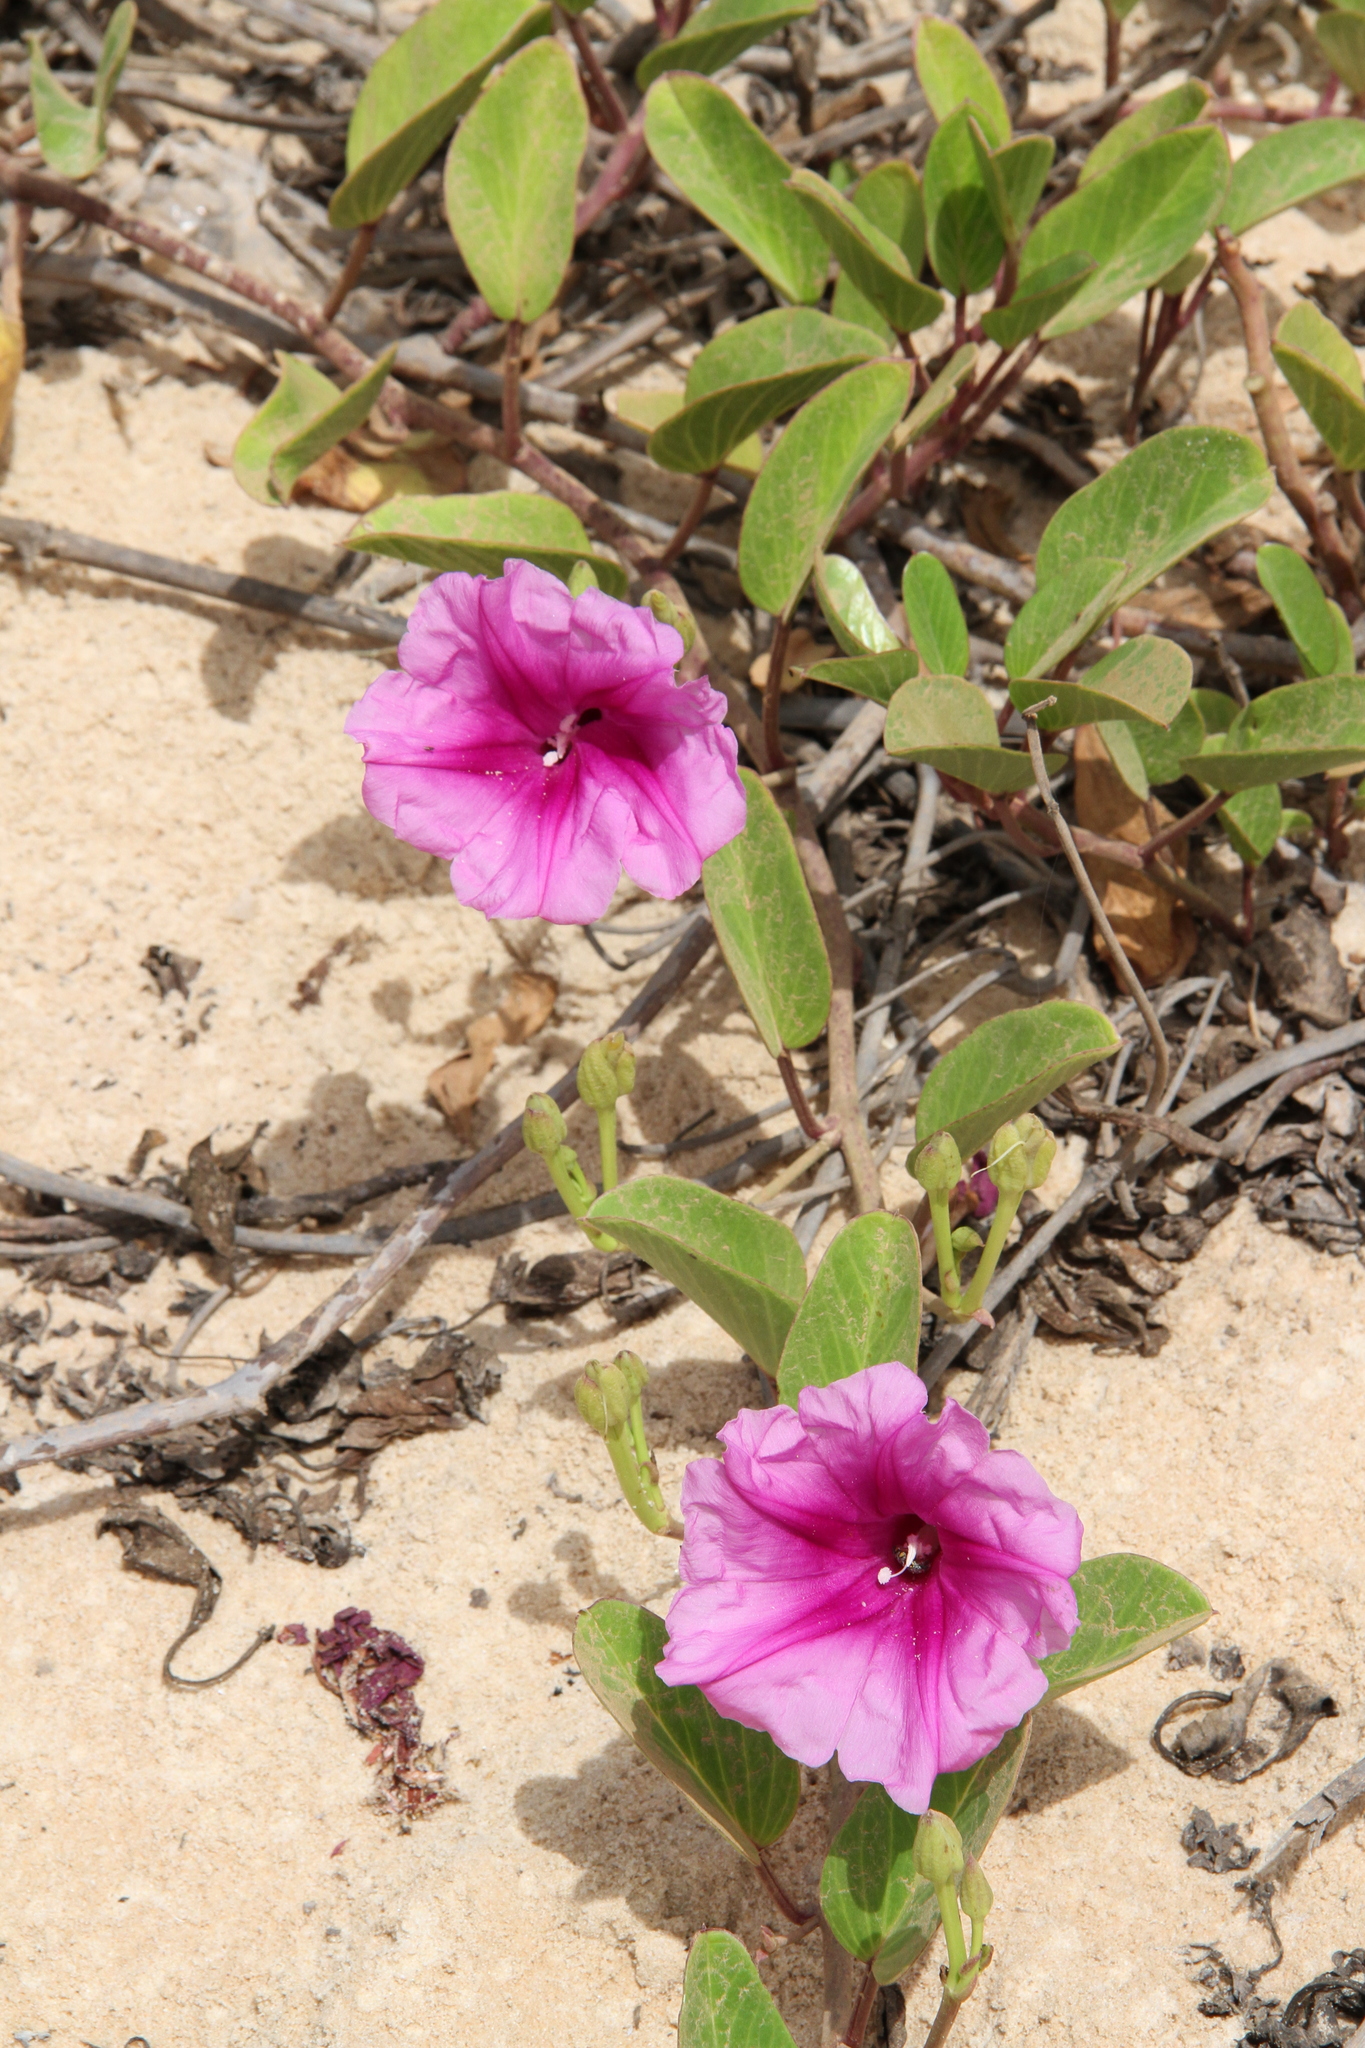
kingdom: Plantae
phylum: Tracheophyta
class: Magnoliopsida
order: Solanales
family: Convolvulaceae
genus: Ipomoea
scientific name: Ipomoea pes-caprae
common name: Beach morning glory
